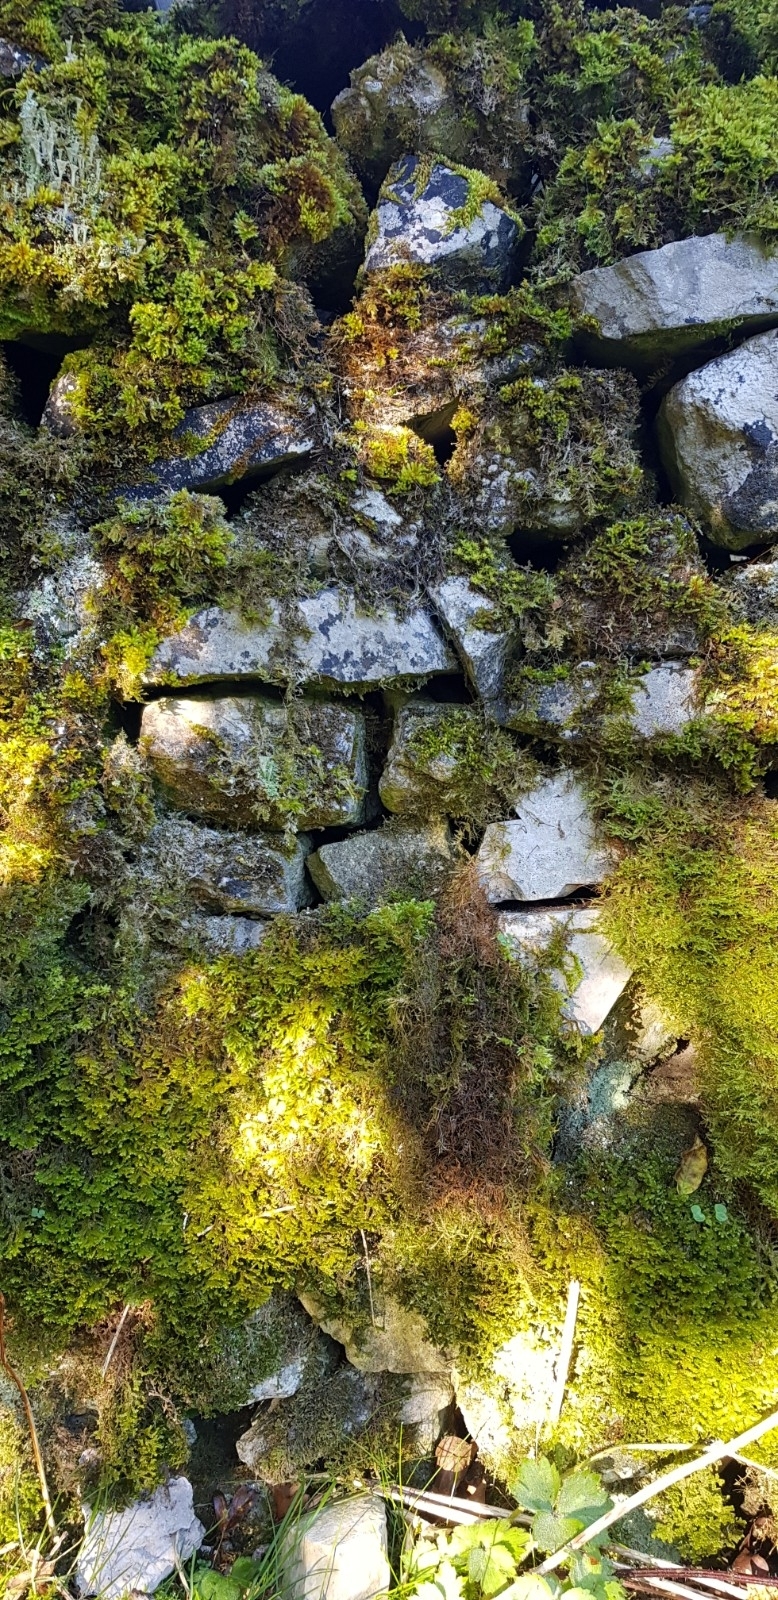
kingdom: Plantae
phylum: Marchantiophyta
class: Jungermanniopsida
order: Porellales
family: Porellaceae
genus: Porella
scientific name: Porella platyphylla
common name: Wall scalewort
